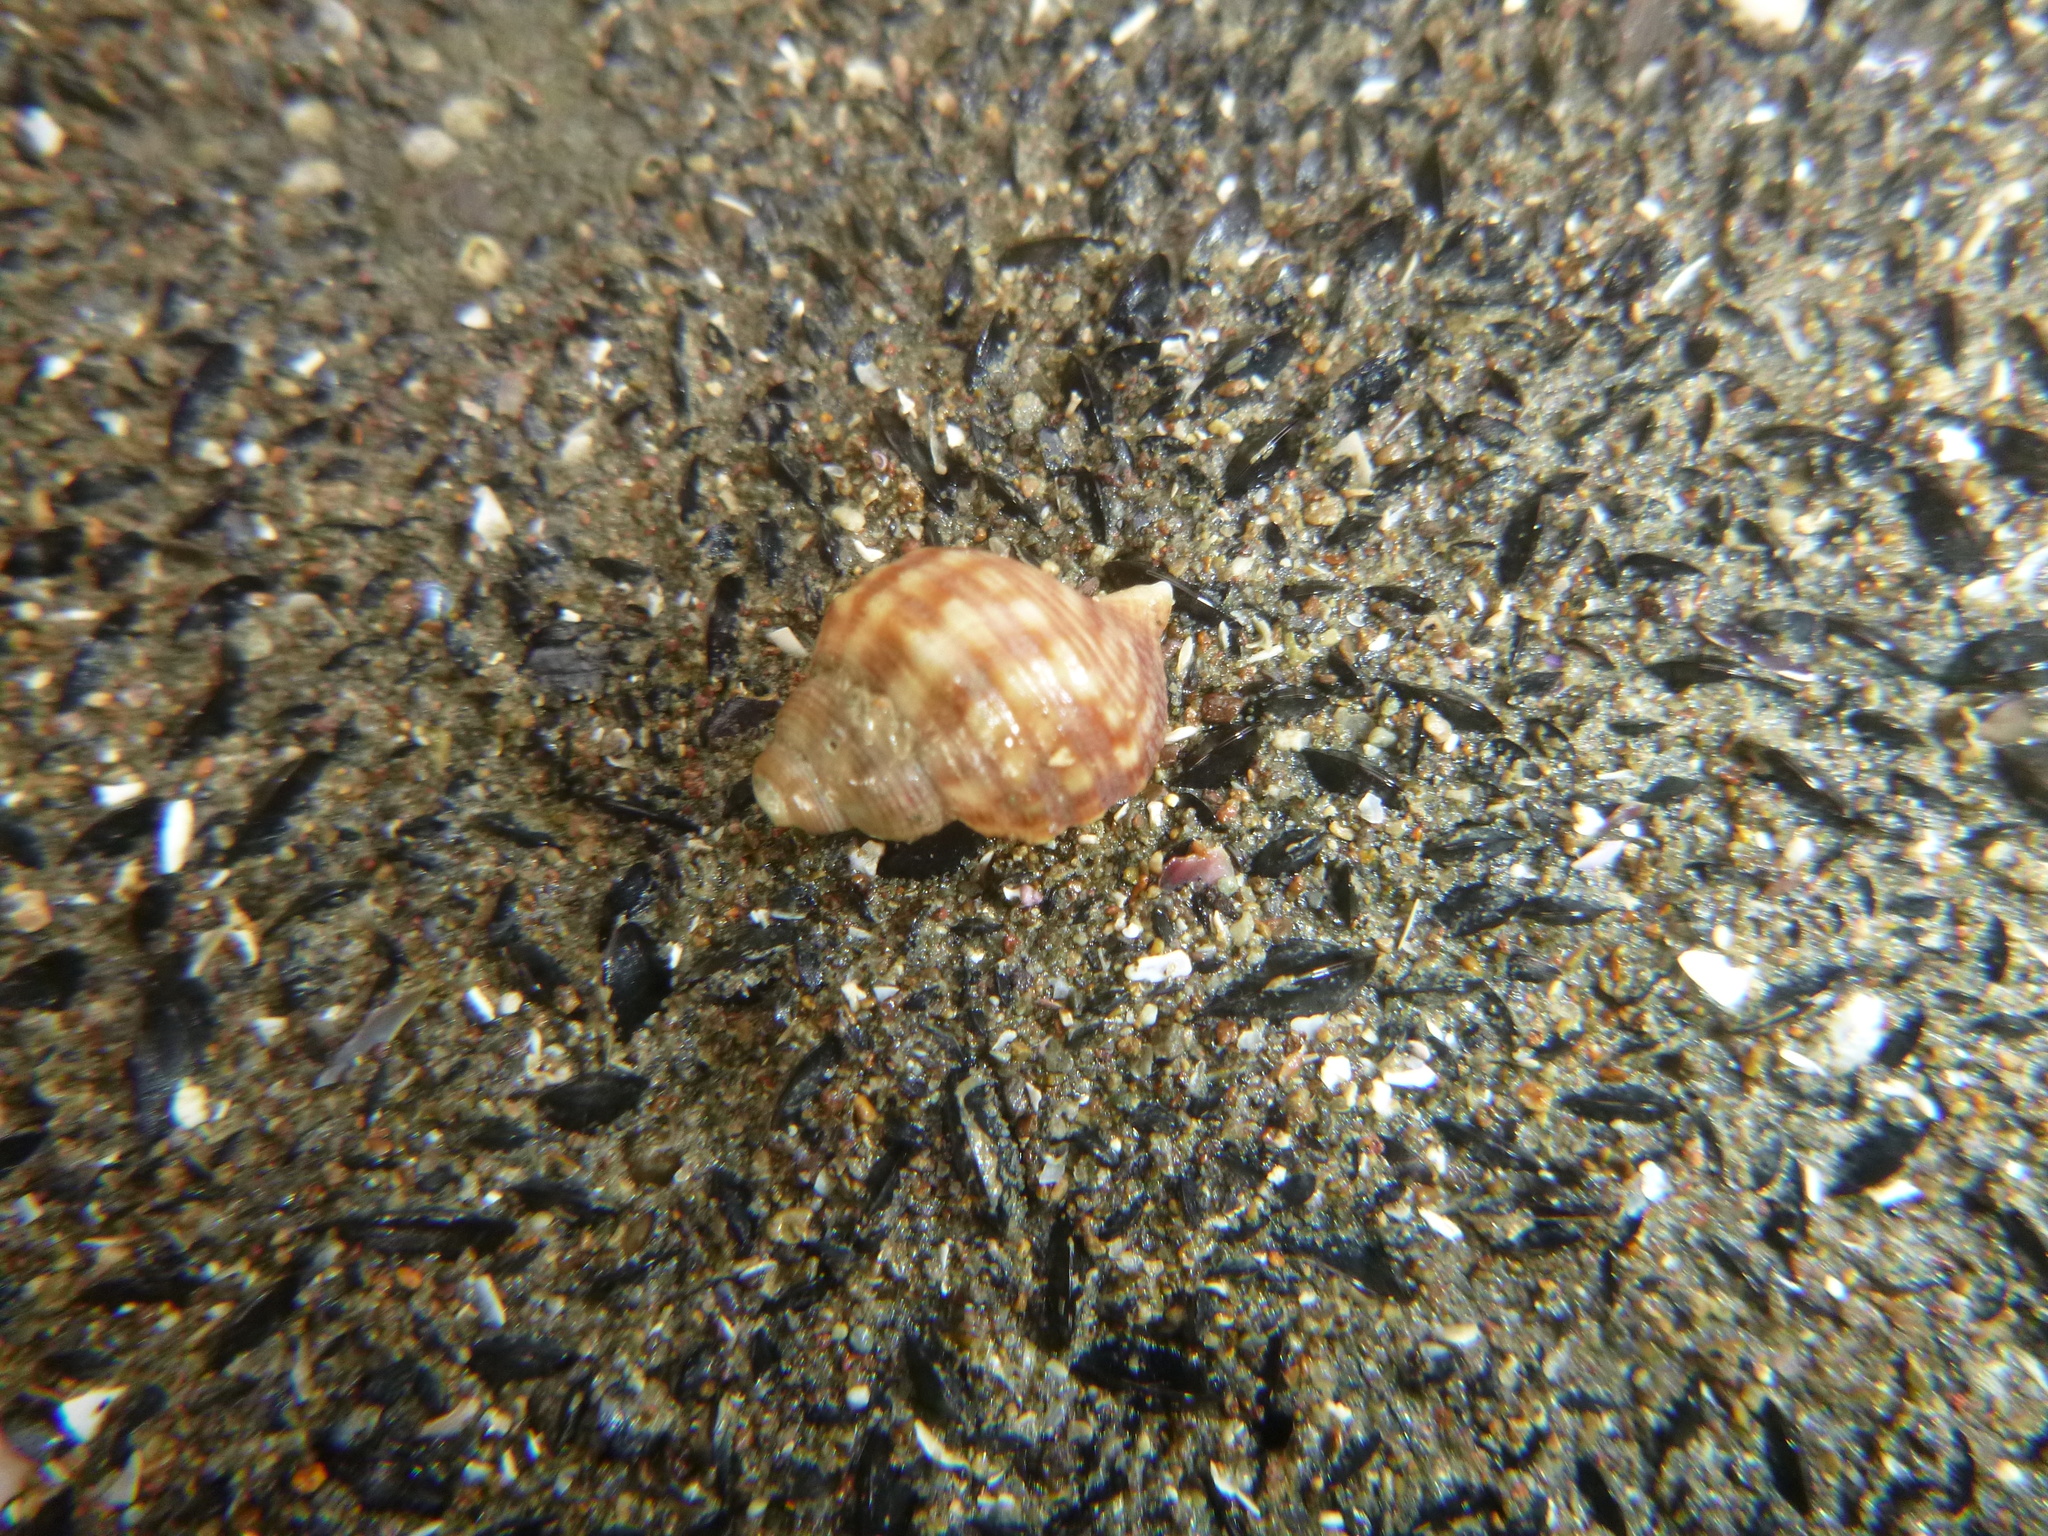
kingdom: Animalia
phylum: Mollusca
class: Gastropoda
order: Littorinimorpha
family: Struthiolariidae
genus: Pelicaria
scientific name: Pelicaria vermis
